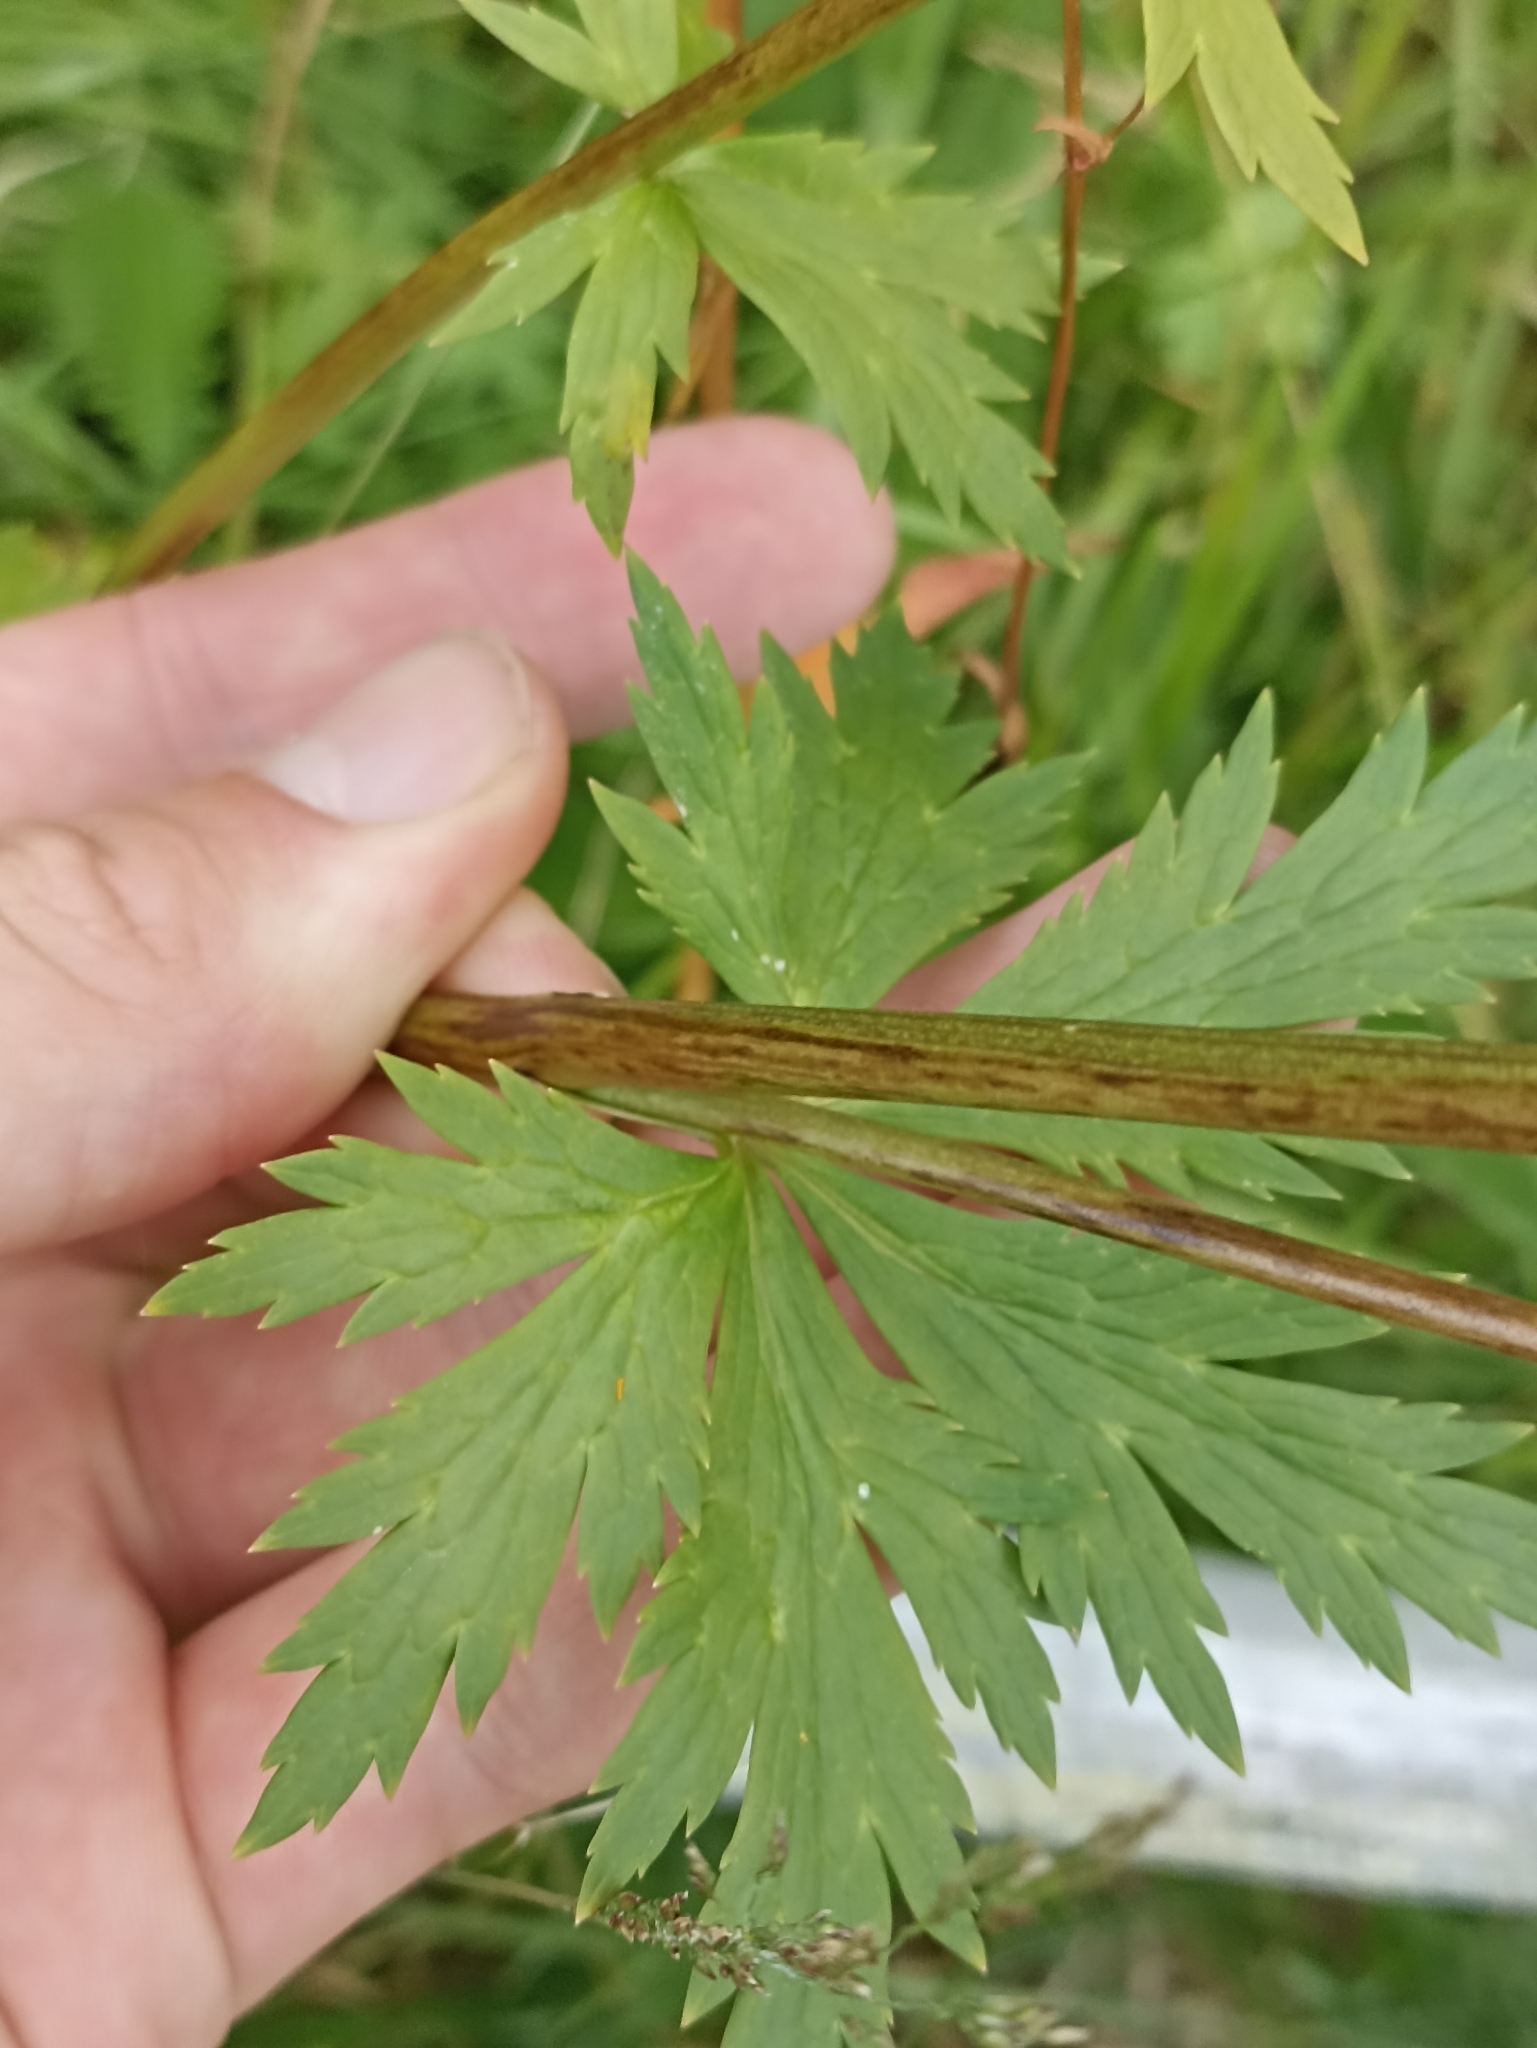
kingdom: Plantae
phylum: Tracheophyta
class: Magnoliopsida
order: Ranunculales
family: Ranunculaceae
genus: Trollius
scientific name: Trollius europaeus
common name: European globeflower
